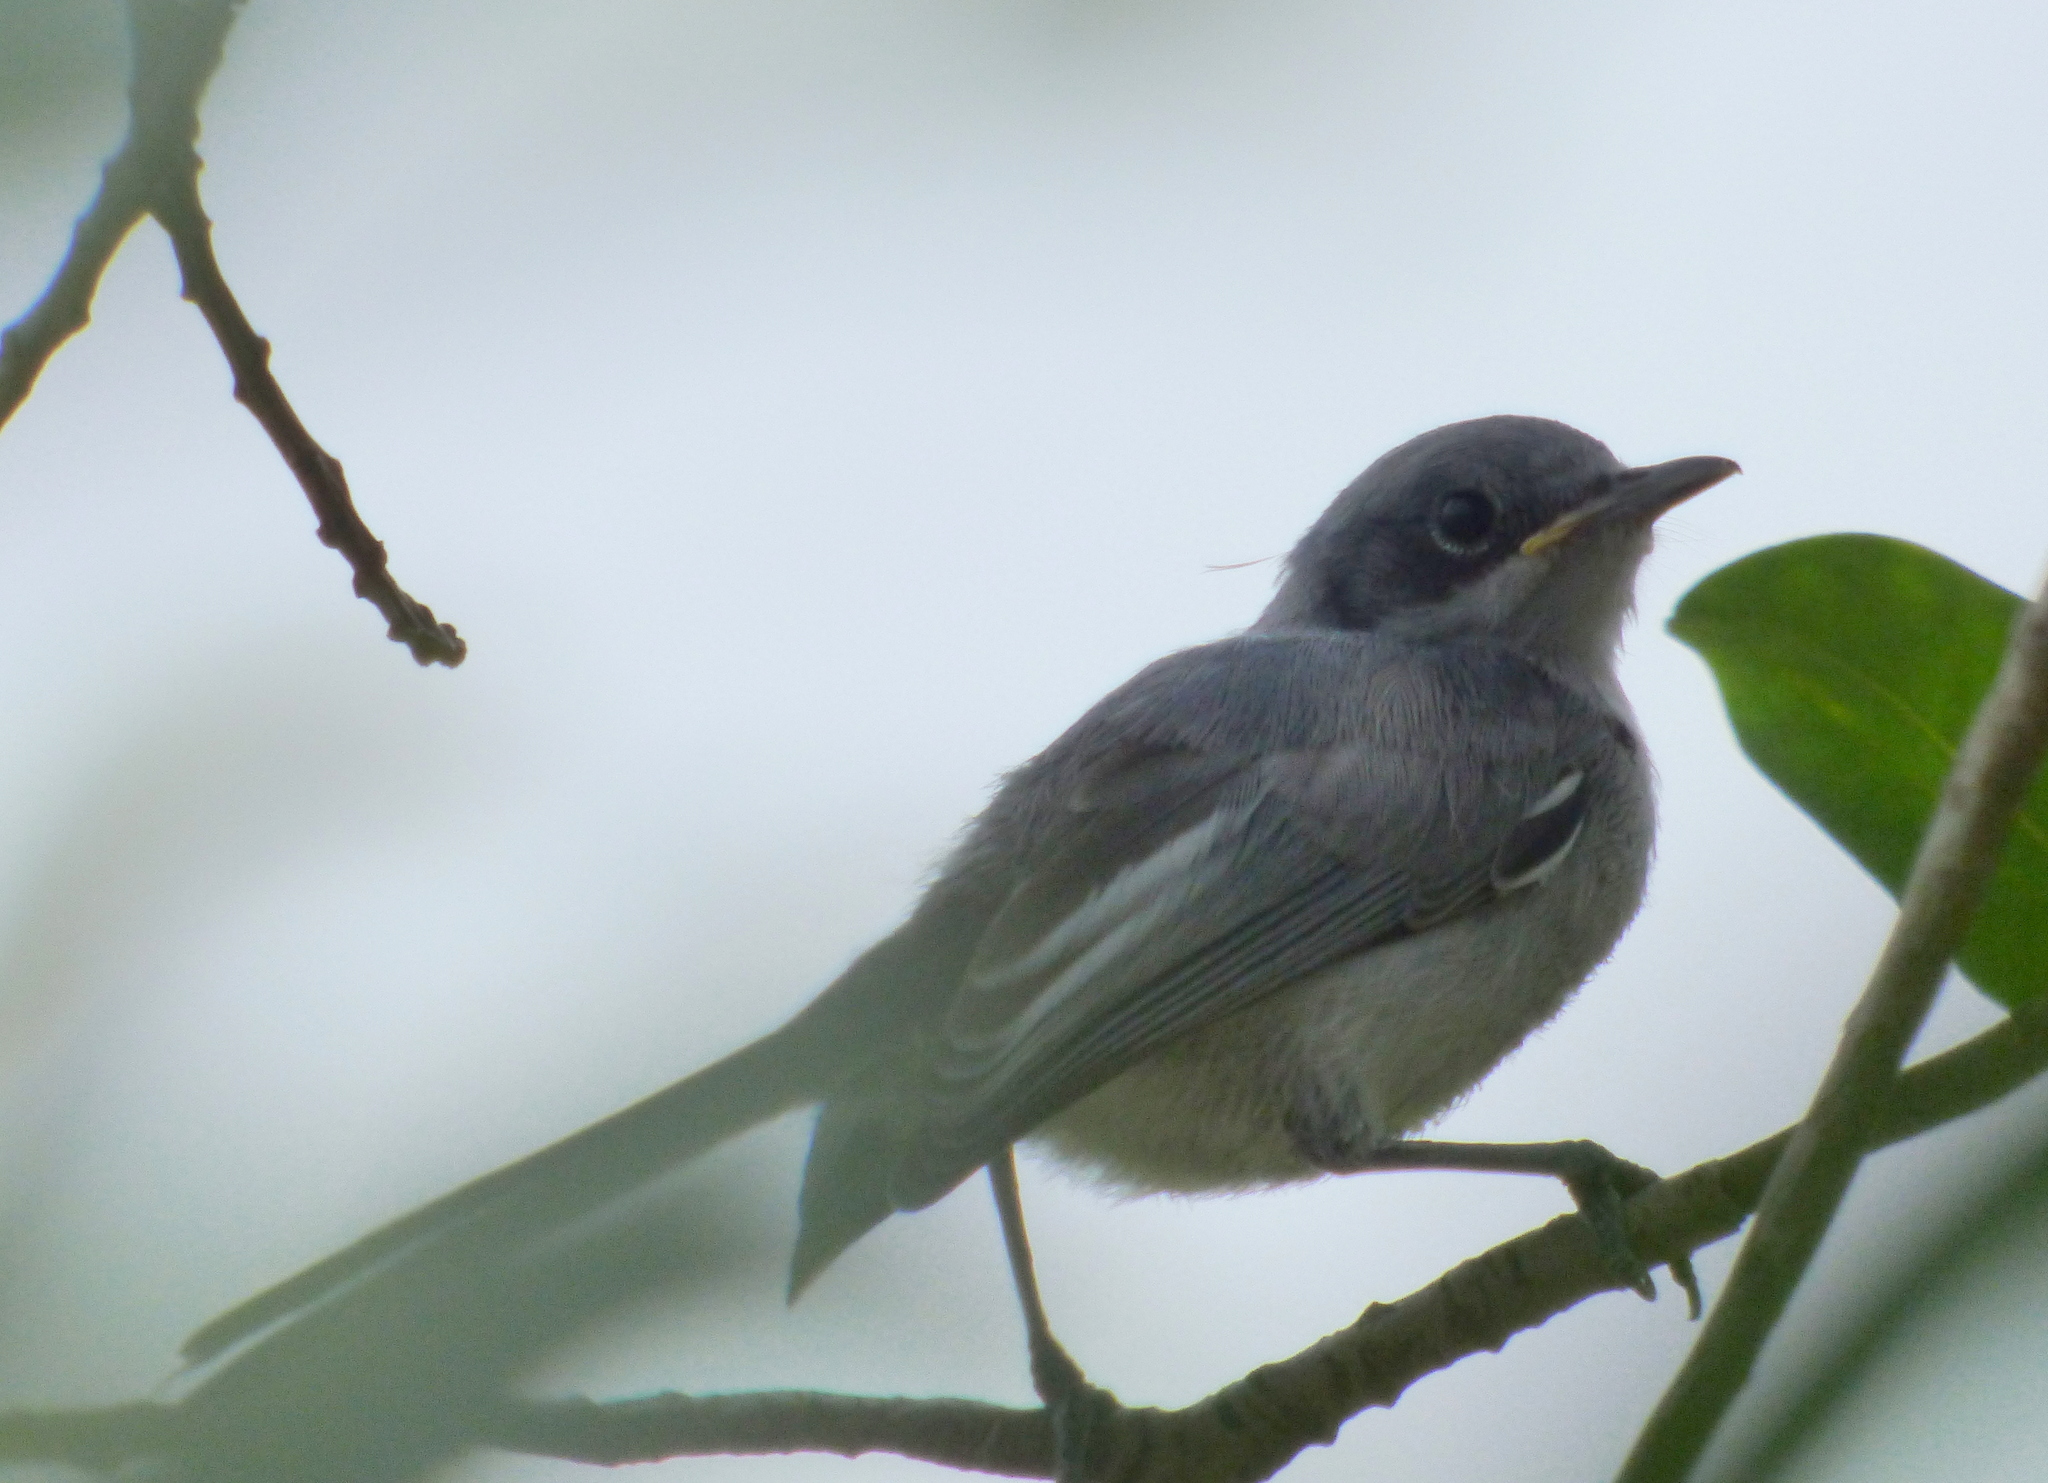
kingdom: Animalia
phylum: Chordata
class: Aves
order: Passeriformes
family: Polioptilidae
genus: Polioptila
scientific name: Polioptila dumicola
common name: Masked gnatcatcher
